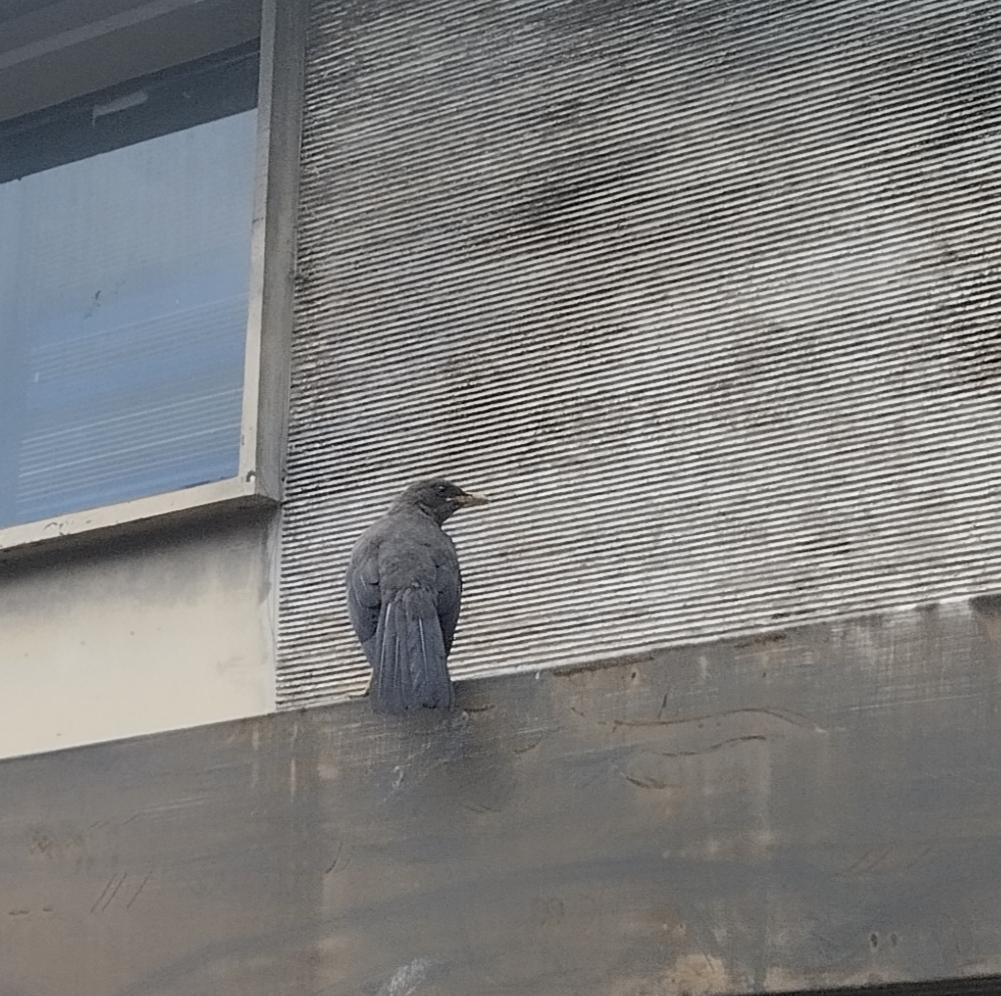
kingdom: Animalia
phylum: Chordata
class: Aves
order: Passeriformes
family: Turdidae
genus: Turdus
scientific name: Turdus fuscater
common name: Great thrush
